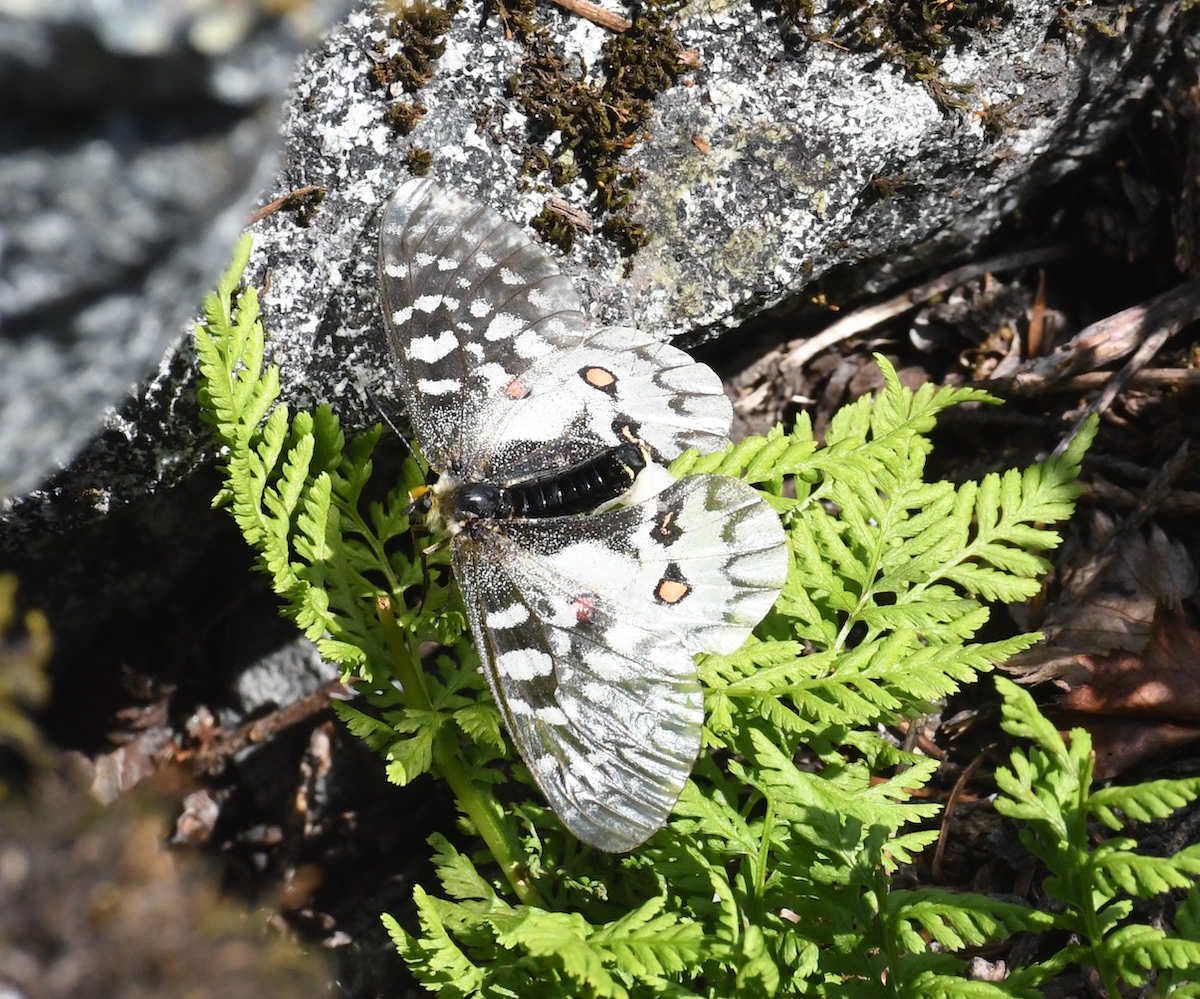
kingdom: Animalia
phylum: Arthropoda
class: Insecta
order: Lepidoptera
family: Papilionidae
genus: Parnassius
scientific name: Parnassius clodius
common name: American apollo
